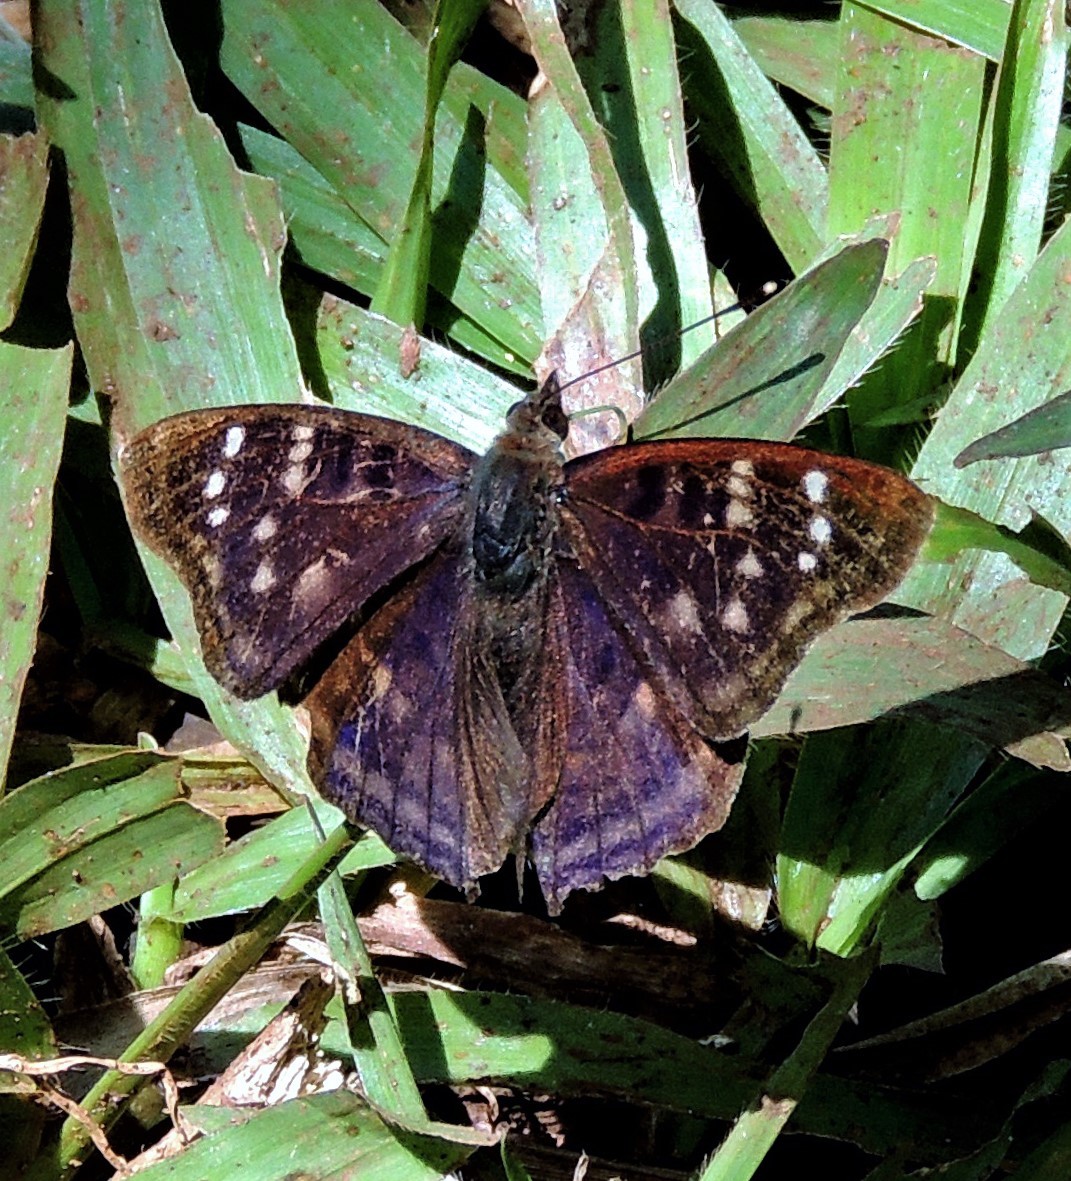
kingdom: Animalia
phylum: Arthropoda
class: Insecta
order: Lepidoptera
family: Nymphalidae
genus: Doxocopa
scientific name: Doxocopa zunilda
